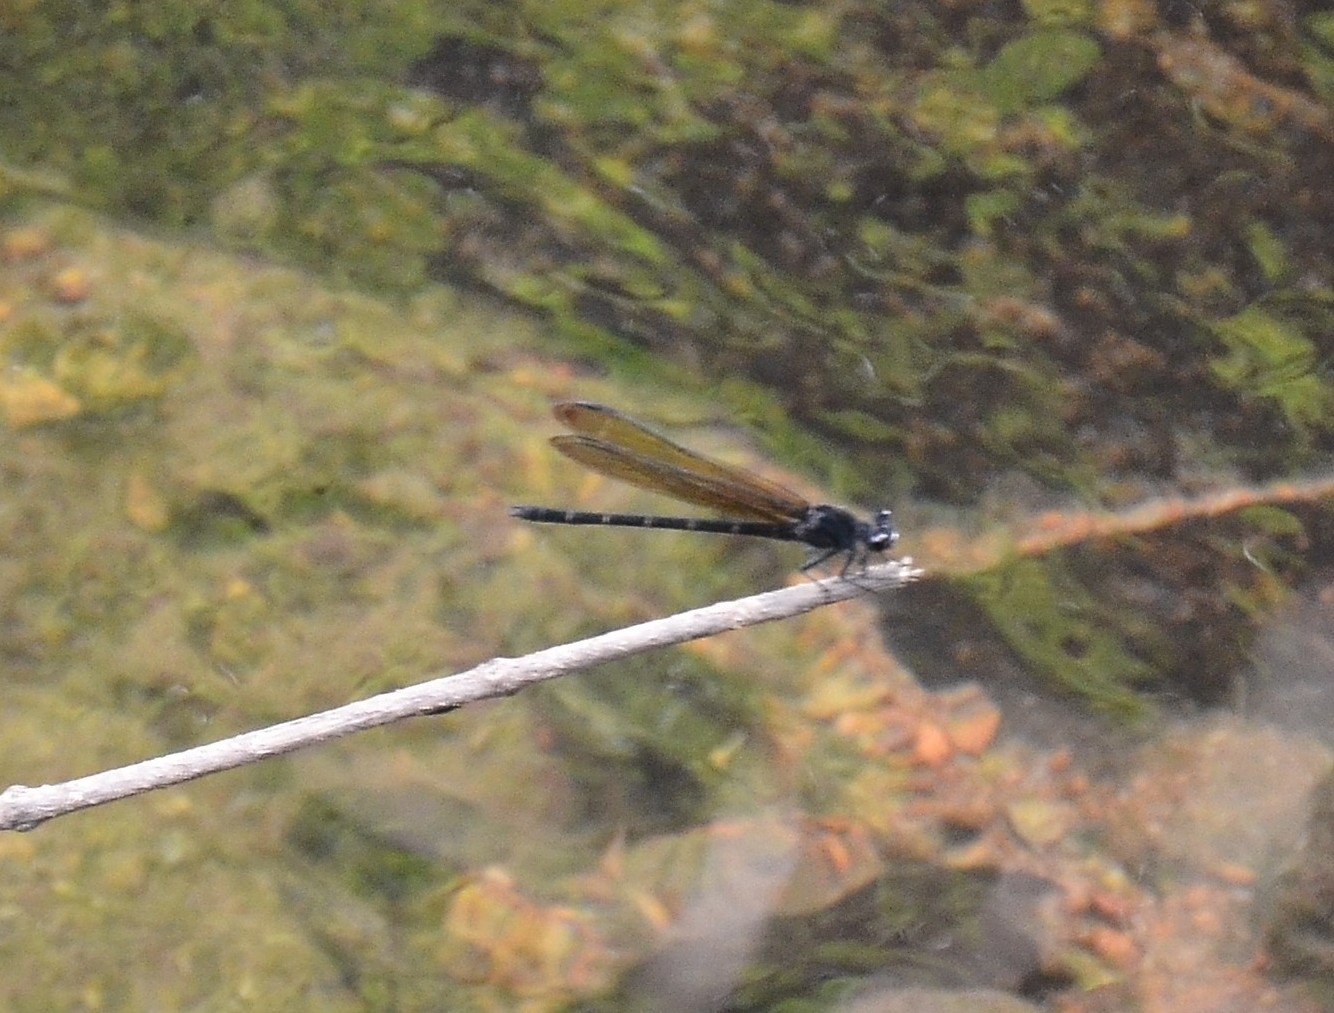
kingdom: Animalia
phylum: Arthropoda
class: Insecta
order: Odonata
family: Euphaeidae
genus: Dysphaea
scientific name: Dysphaea ethela
